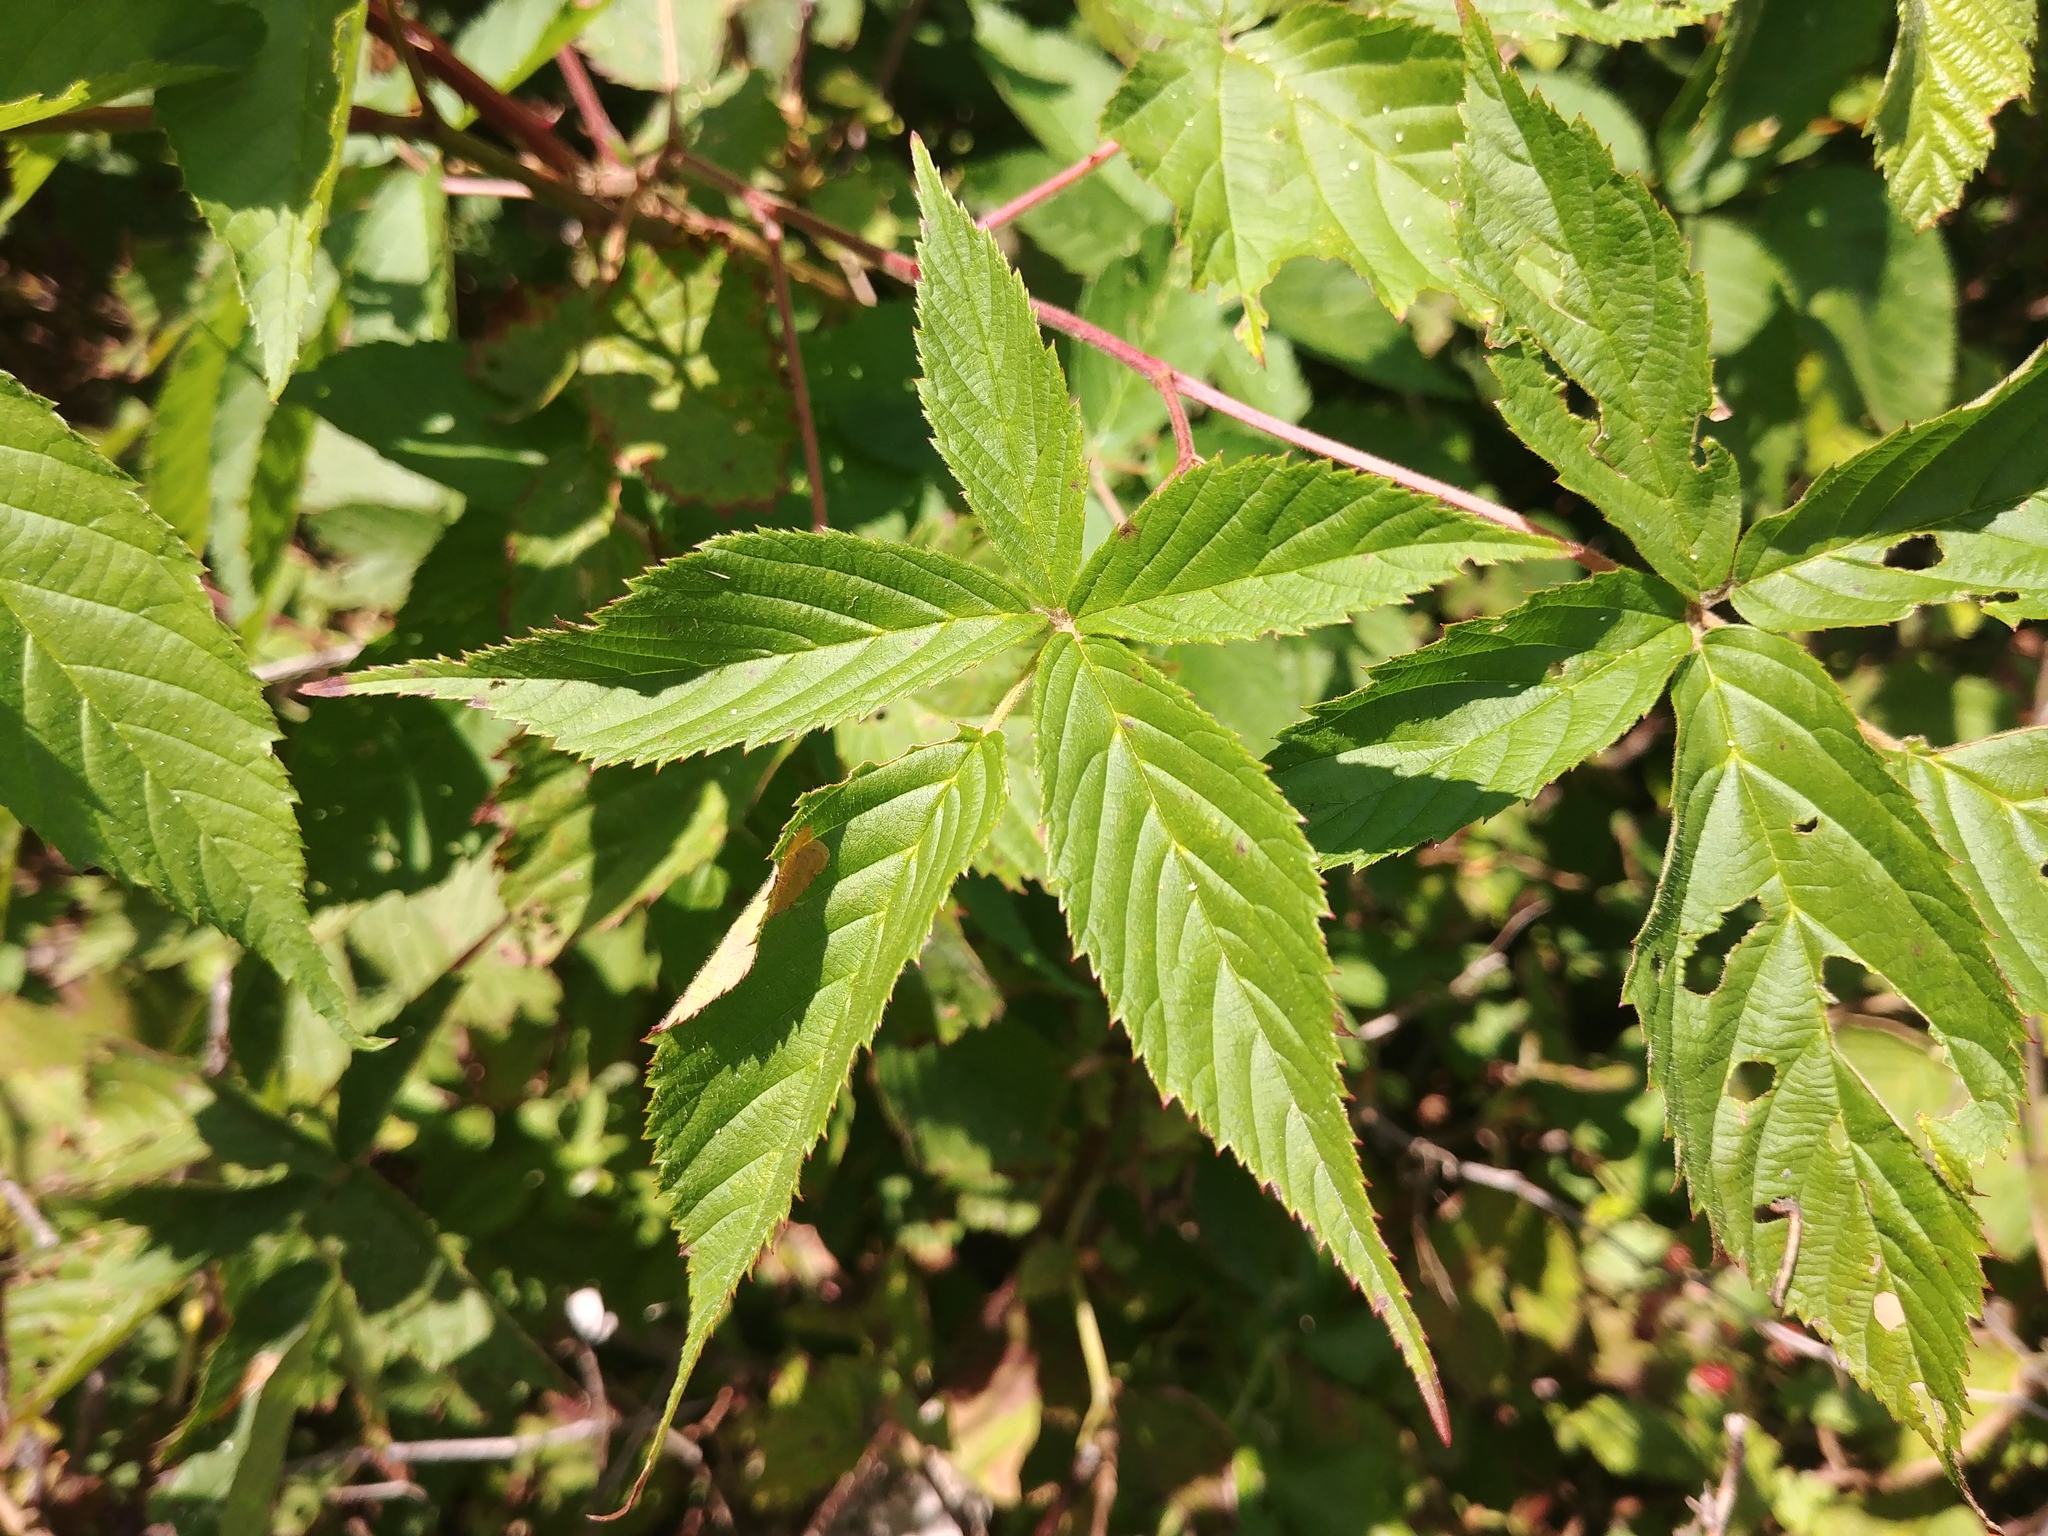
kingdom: Plantae
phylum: Tracheophyta
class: Magnoliopsida
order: Rosales
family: Rosaceae
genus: Rubus
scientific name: Rubus allegheniensis
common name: Allegheny blackberry
